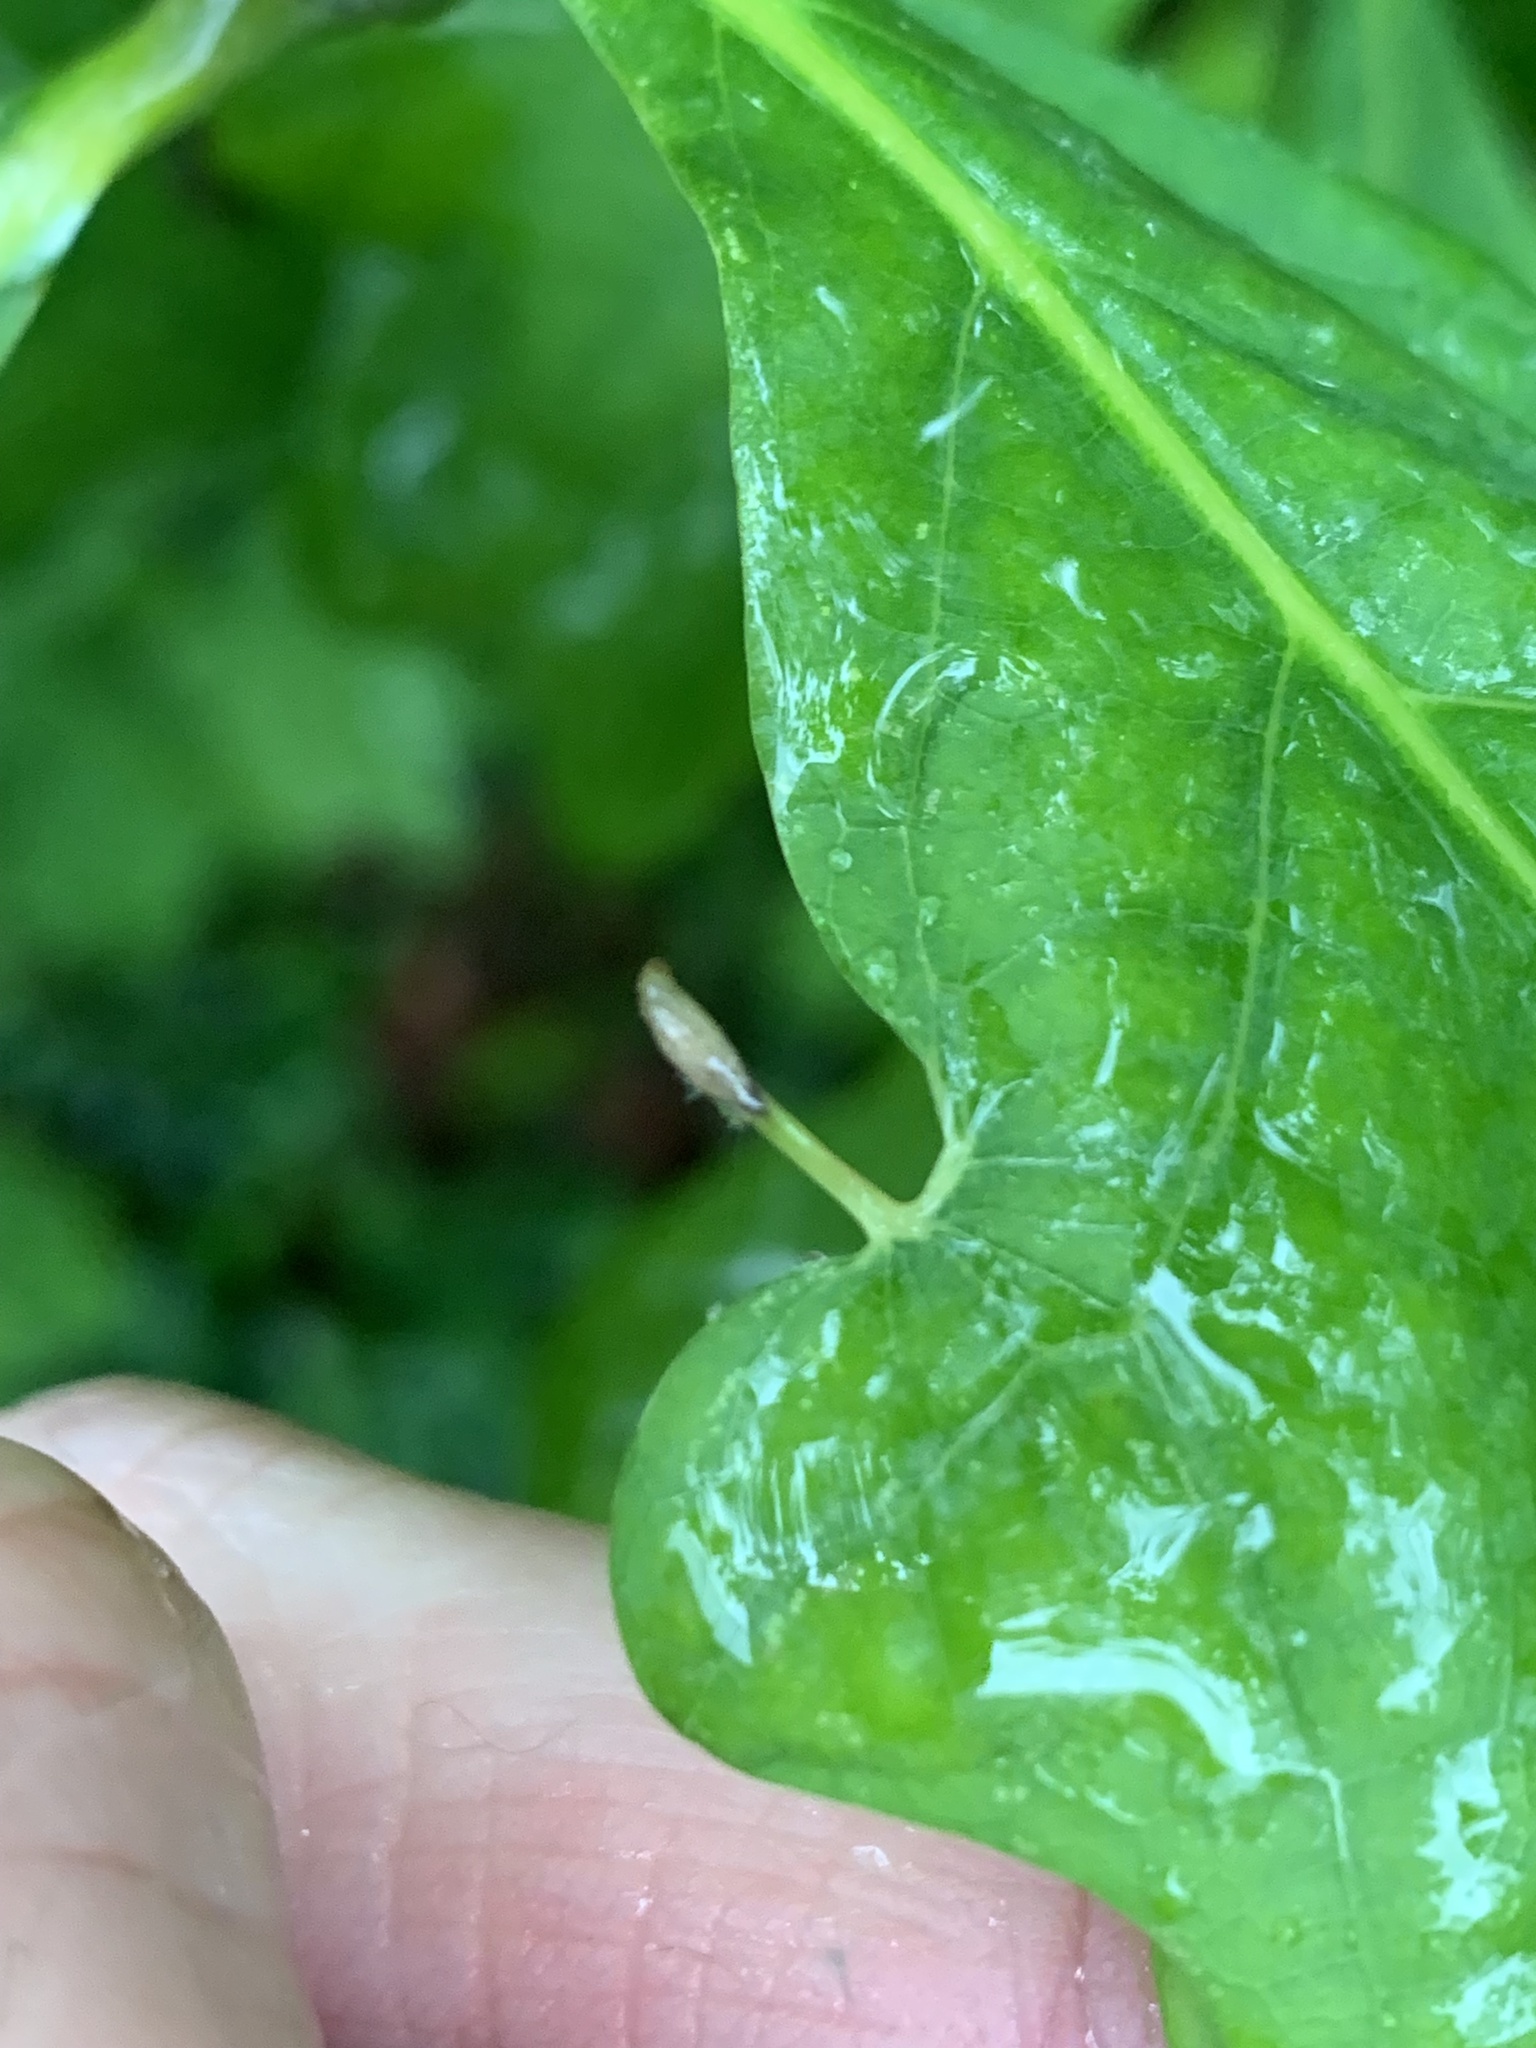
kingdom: Animalia
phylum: Arthropoda
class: Insecta
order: Hymenoptera
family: Cynipidae
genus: Andricus
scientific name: Andricus
